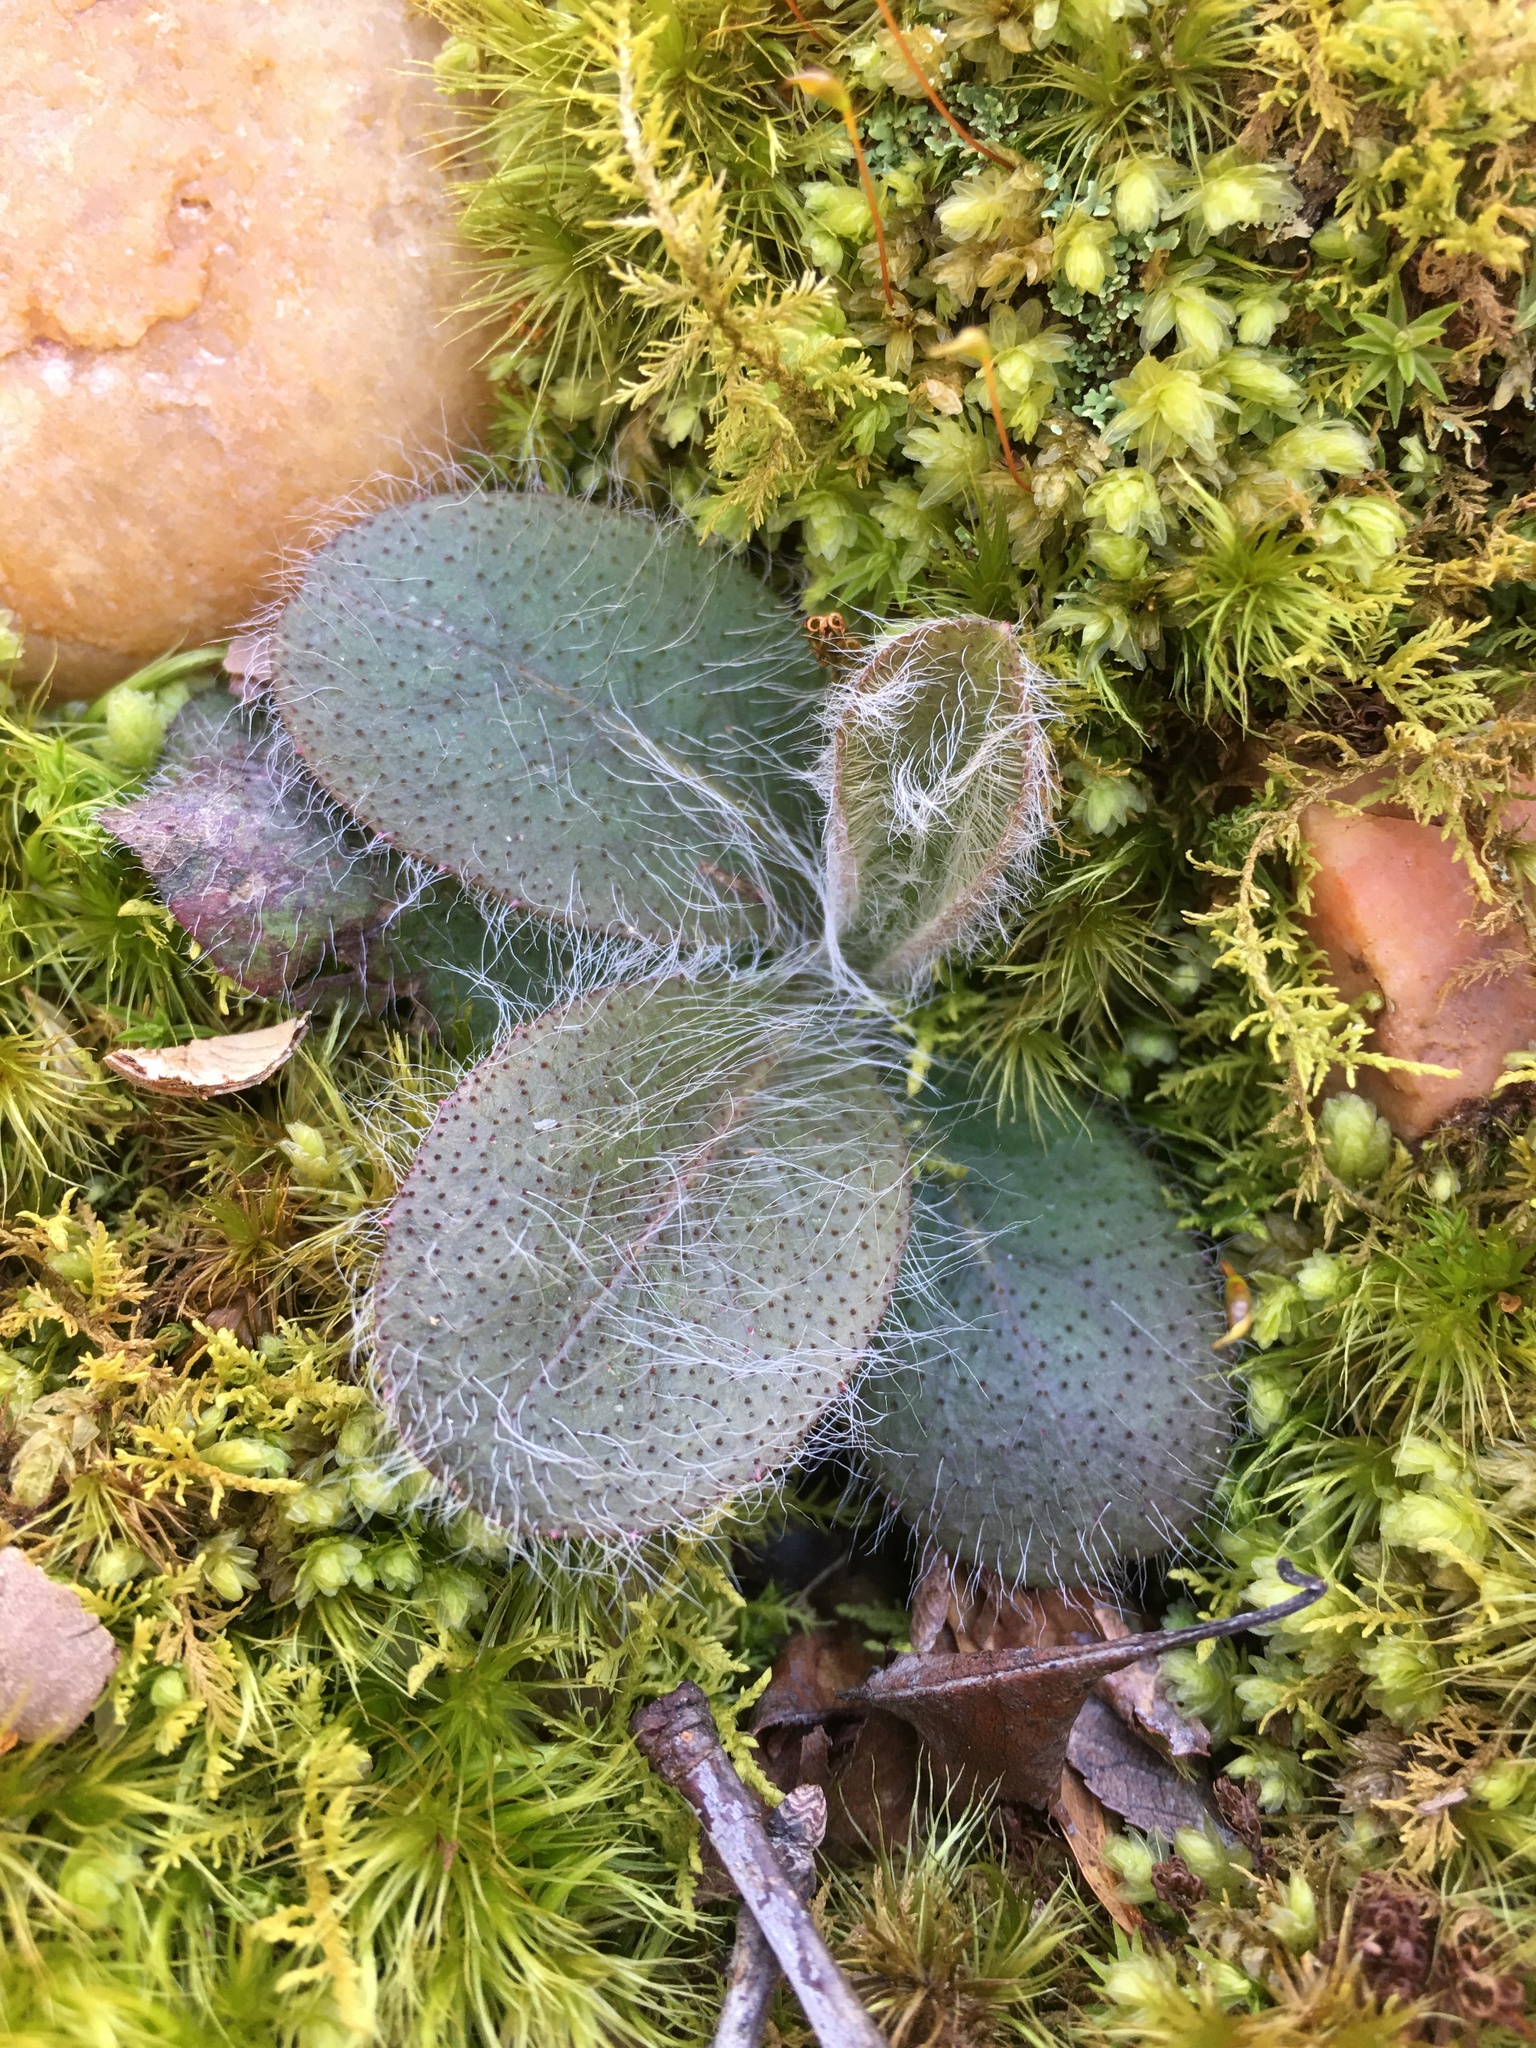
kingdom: Plantae
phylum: Tracheophyta
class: Magnoliopsida
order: Asterales
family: Asteraceae
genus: Hieracium
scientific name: Hieracium gronovii
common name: Beaked hawkweed
